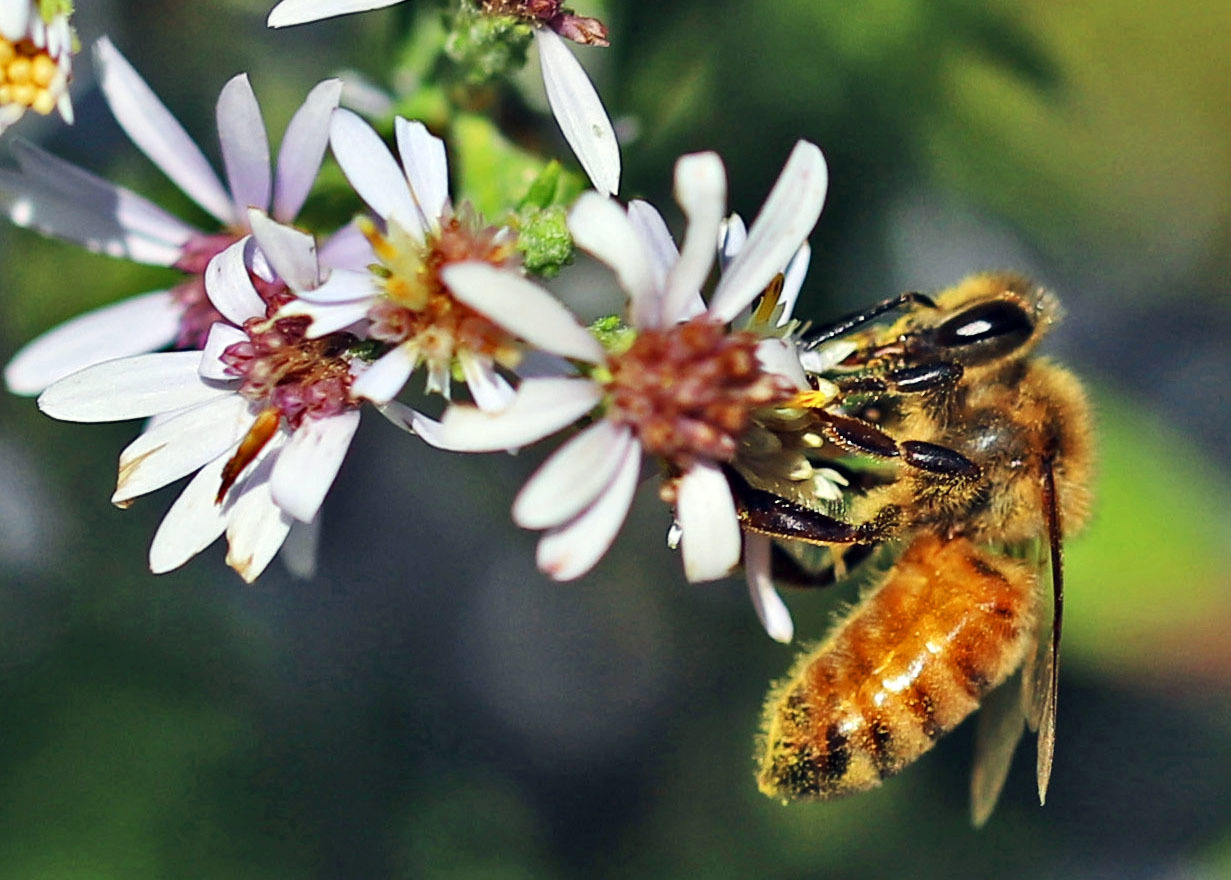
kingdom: Animalia
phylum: Arthropoda
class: Insecta
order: Hymenoptera
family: Apidae
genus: Apis
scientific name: Apis mellifera
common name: Honey bee
